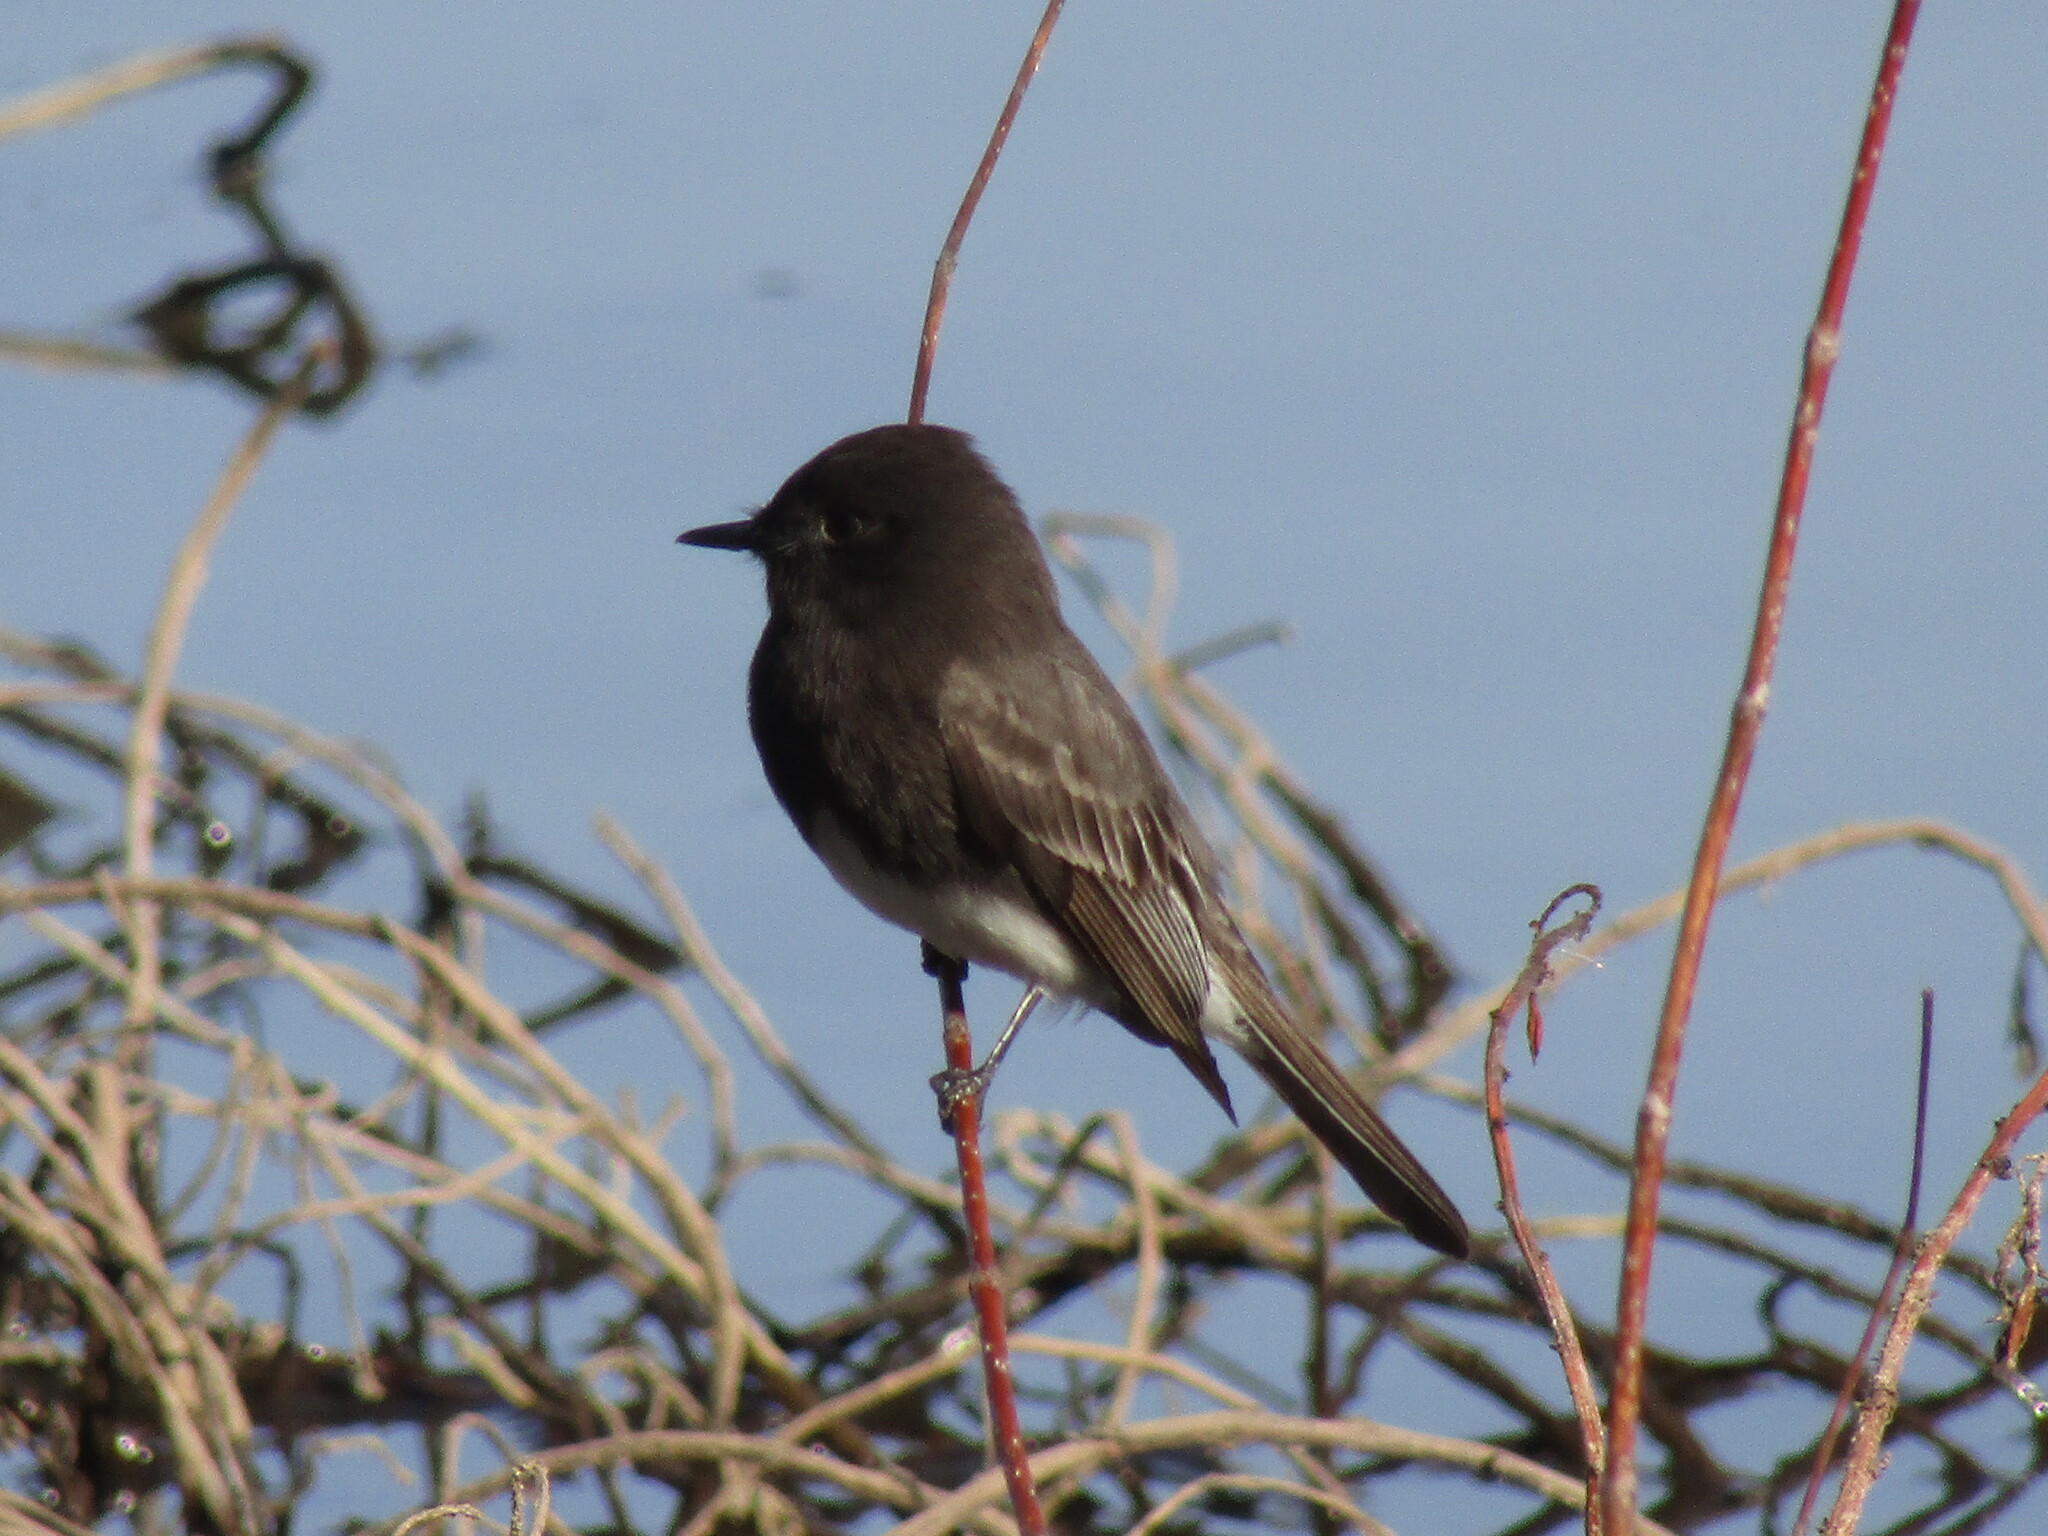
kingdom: Animalia
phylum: Chordata
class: Aves
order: Passeriformes
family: Tyrannidae
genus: Sayornis
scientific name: Sayornis nigricans
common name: Black phoebe
